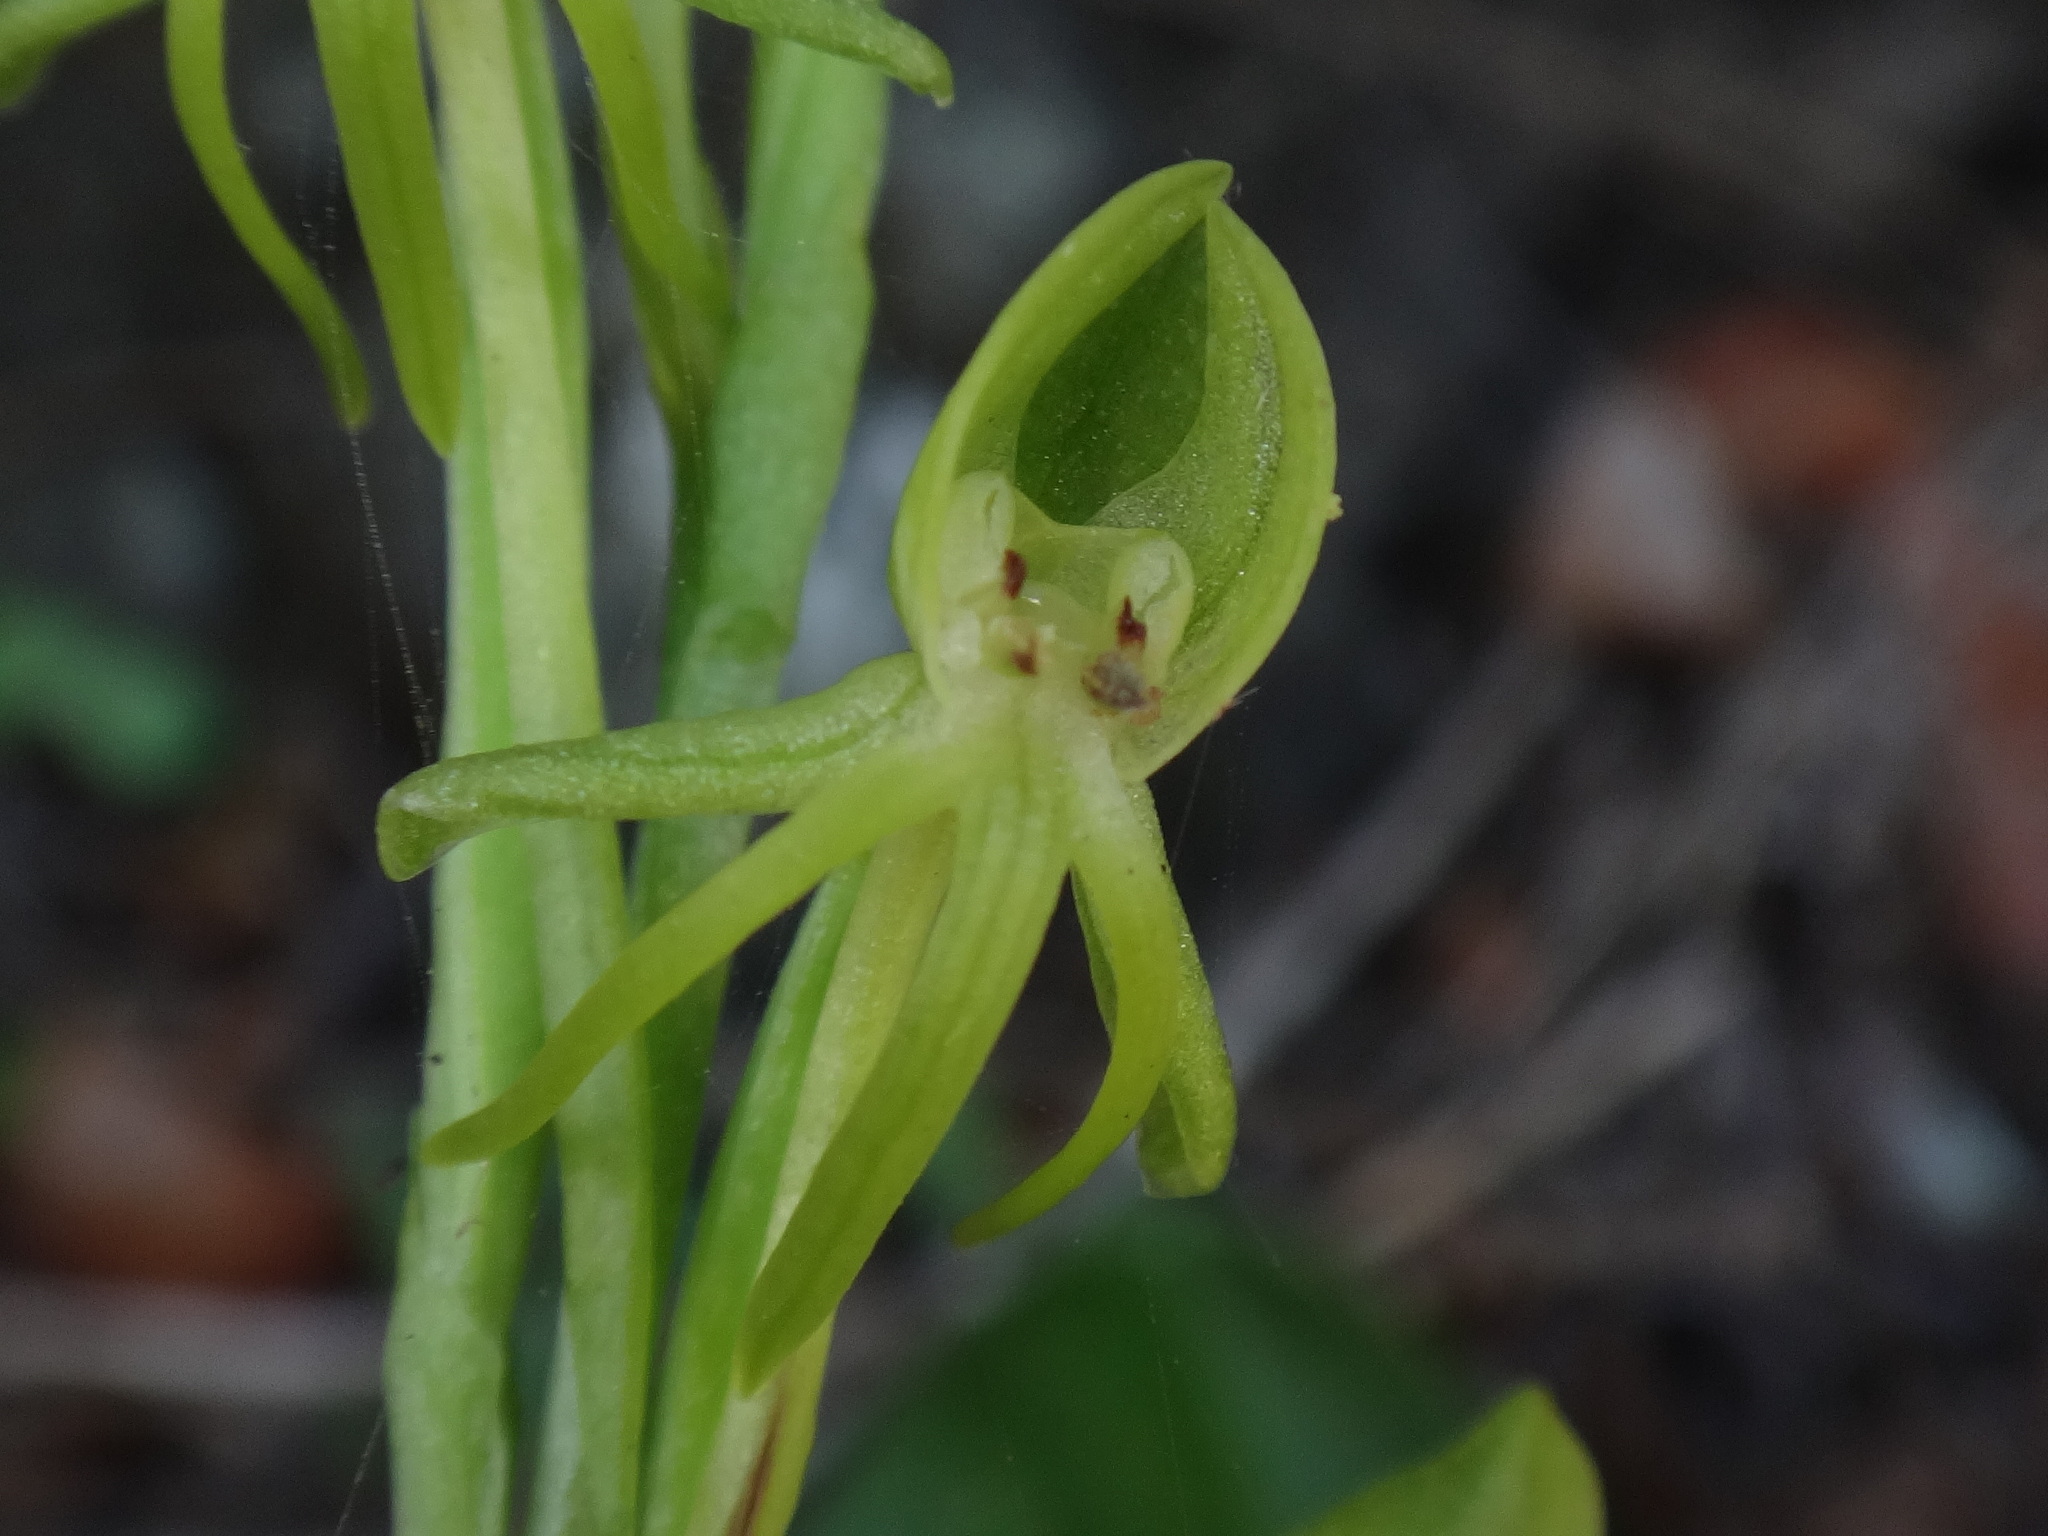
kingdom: Plantae
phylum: Tracheophyta
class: Liliopsida
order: Asparagales
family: Orchidaceae
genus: Habenaria
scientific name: Habenaria tridactylites
